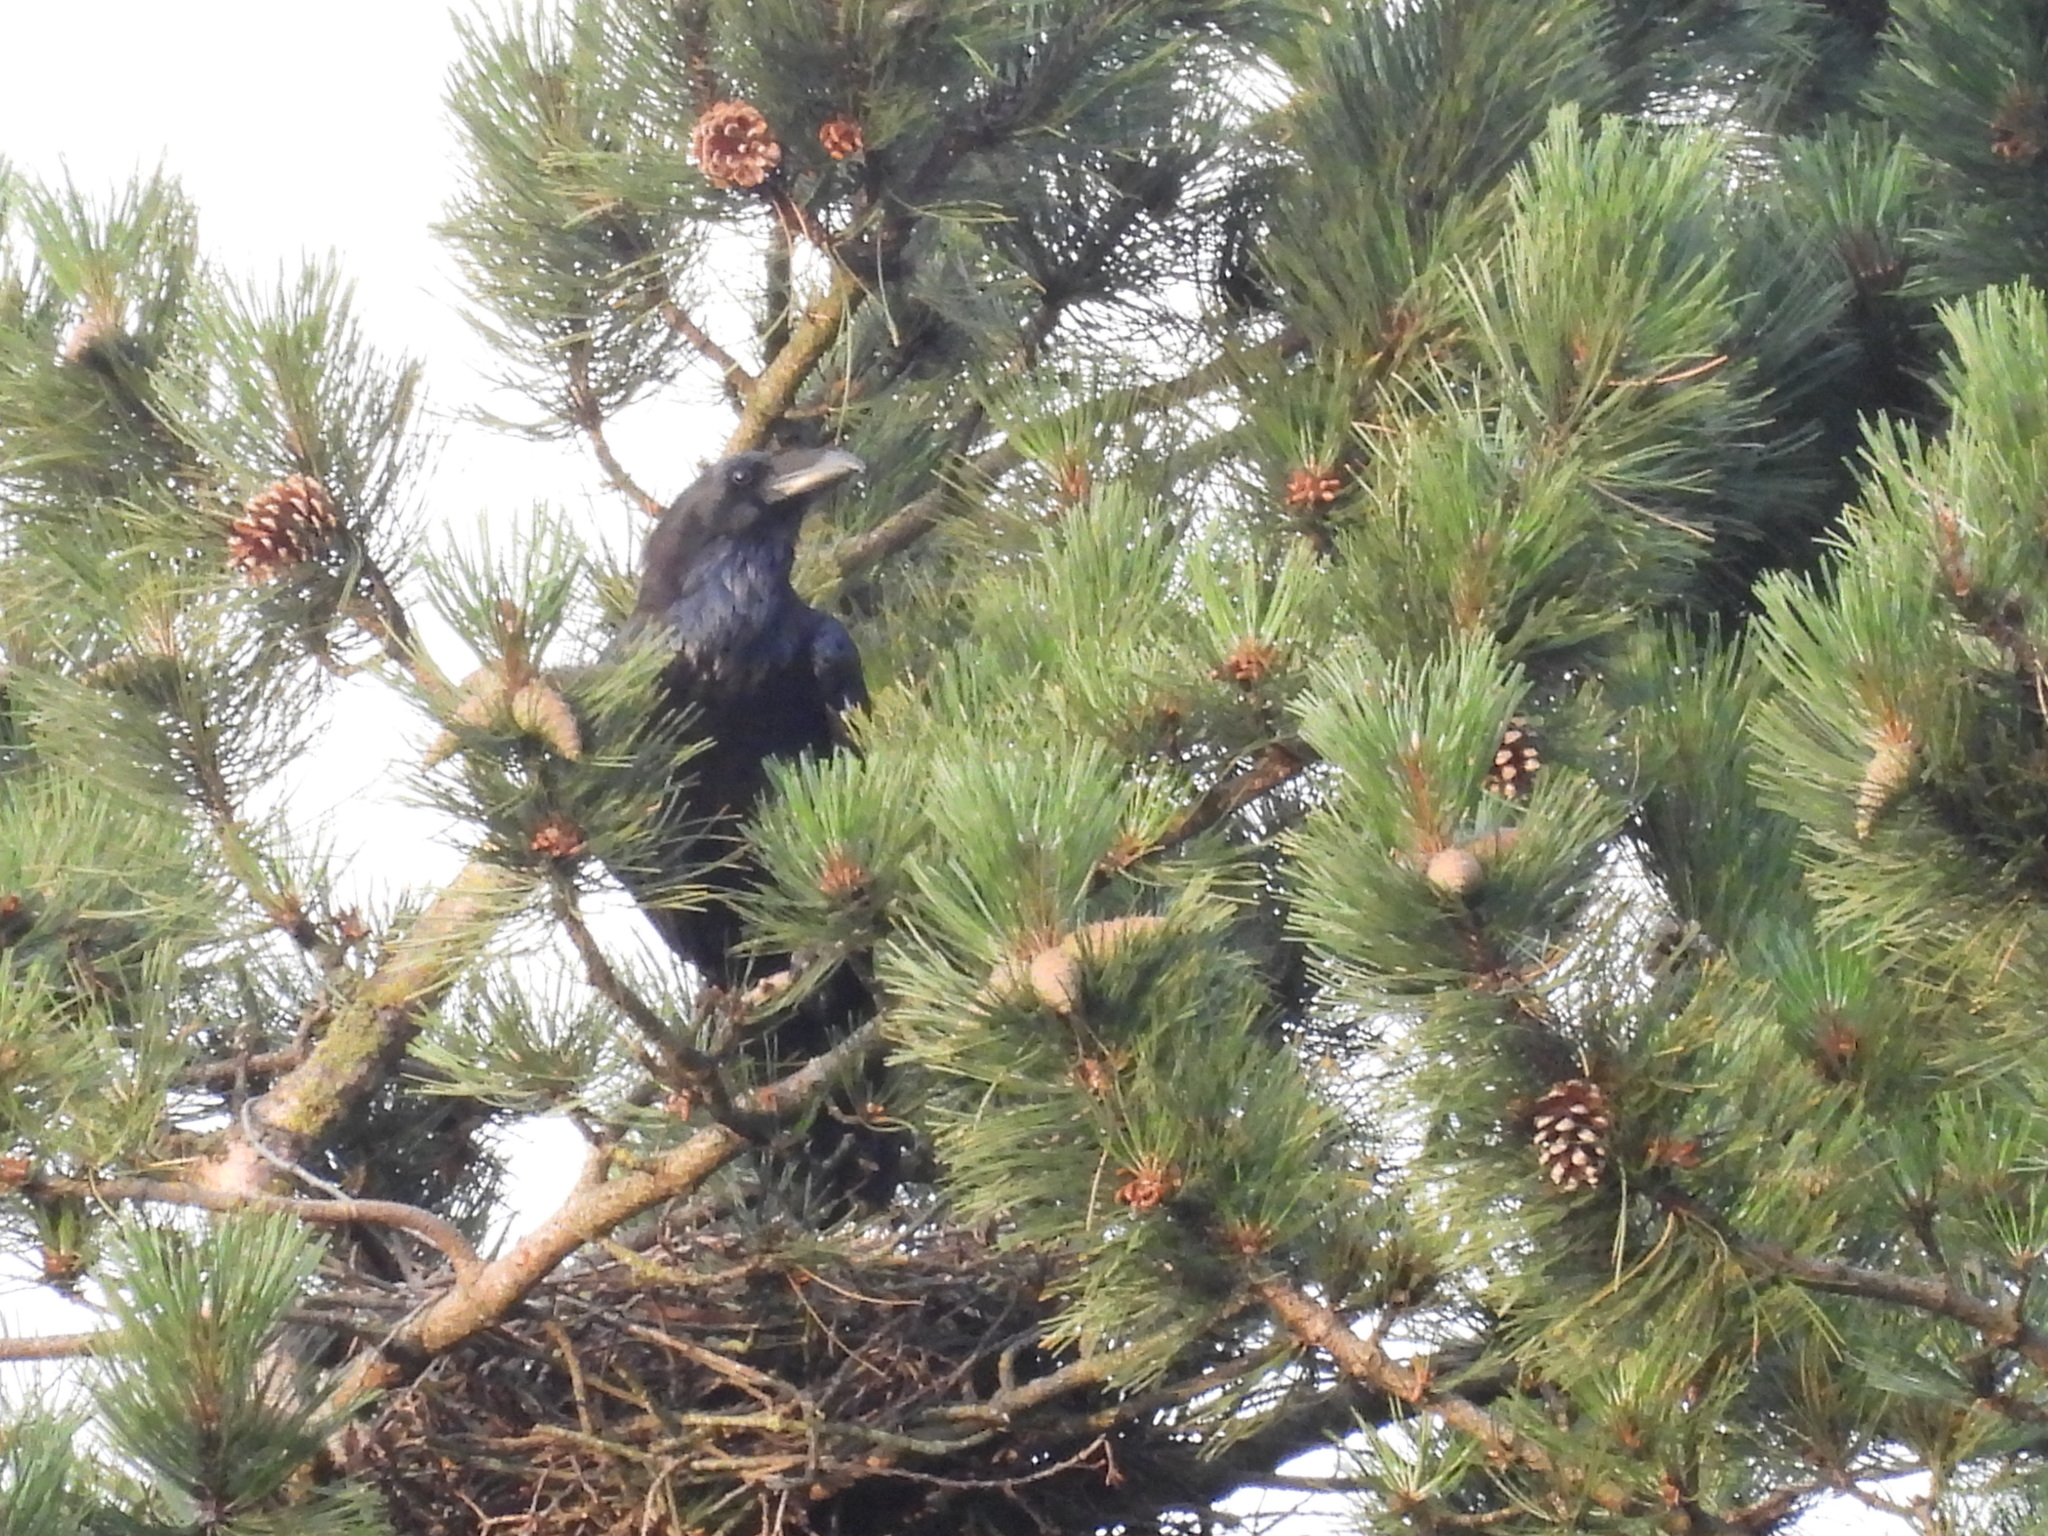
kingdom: Animalia
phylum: Chordata
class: Aves
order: Passeriformes
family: Corvidae
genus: Corvus
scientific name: Corvus corax
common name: Common raven
